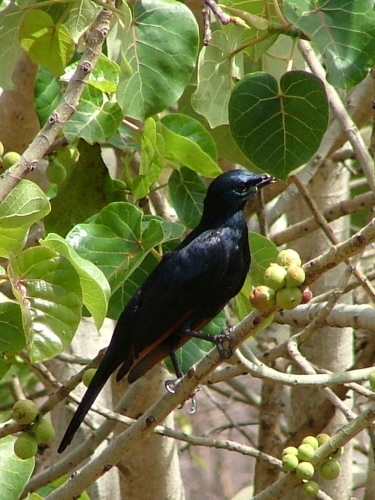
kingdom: Animalia
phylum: Chordata
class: Aves
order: Passeriformes
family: Sturnidae
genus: Onychognathus
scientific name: Onychognathus morio
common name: Red-winged starling
